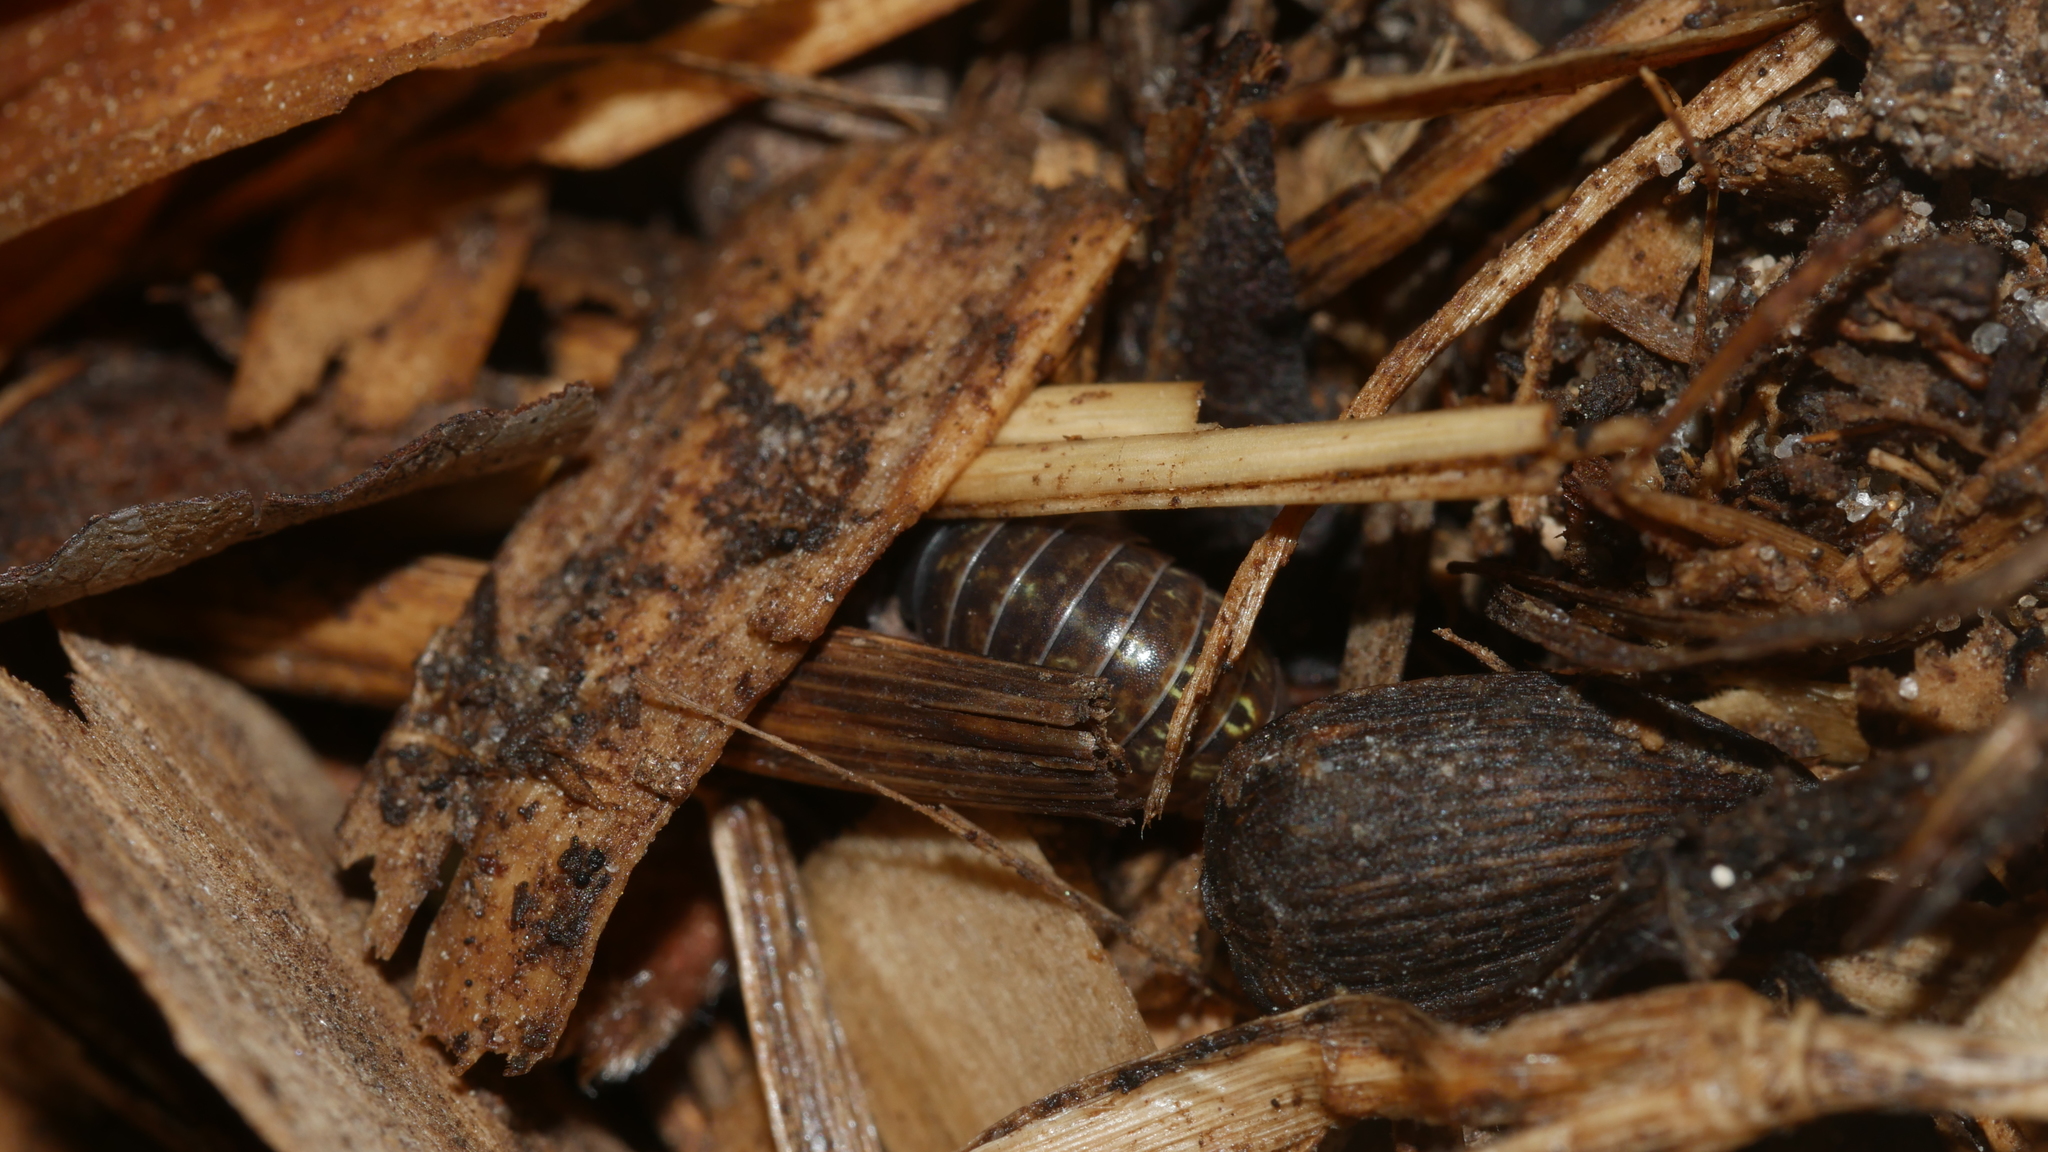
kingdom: Animalia
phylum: Arthropoda
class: Malacostraca
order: Isopoda
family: Armadillidiidae
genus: Armadillidium
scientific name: Armadillidium vulgare
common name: Common pill woodlouse
